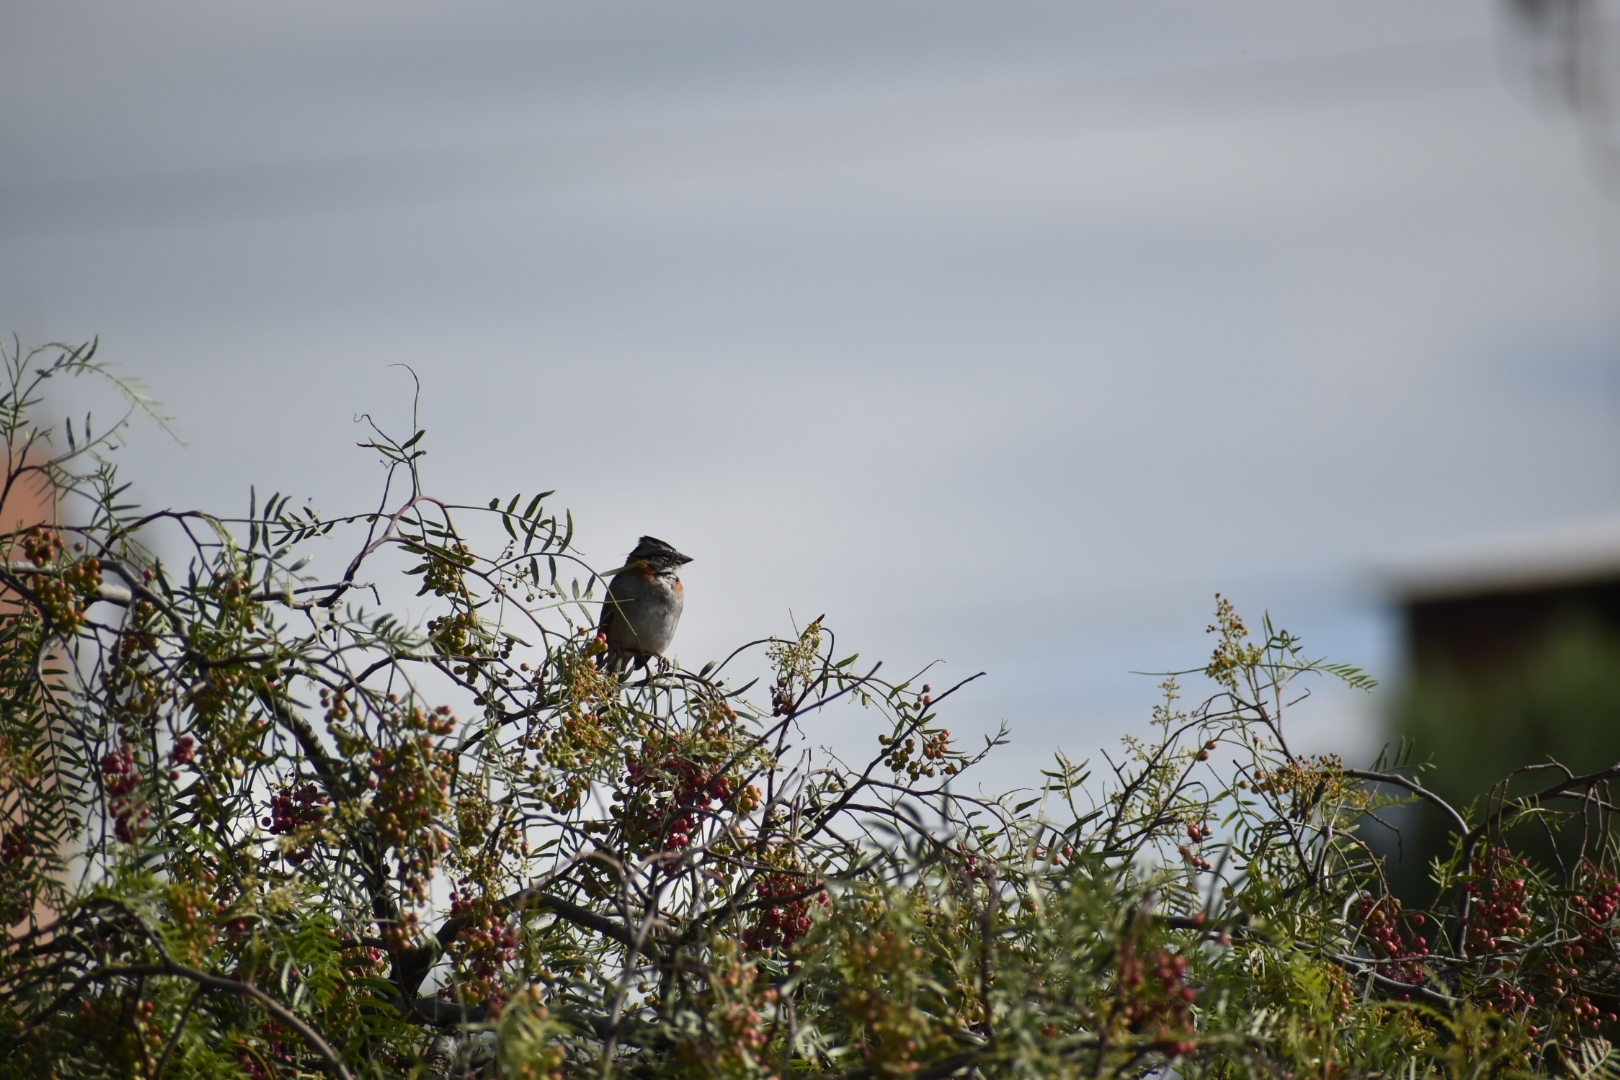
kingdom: Animalia
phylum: Chordata
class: Aves
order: Passeriformes
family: Passerellidae
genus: Zonotrichia
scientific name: Zonotrichia capensis
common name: Rufous-collared sparrow
